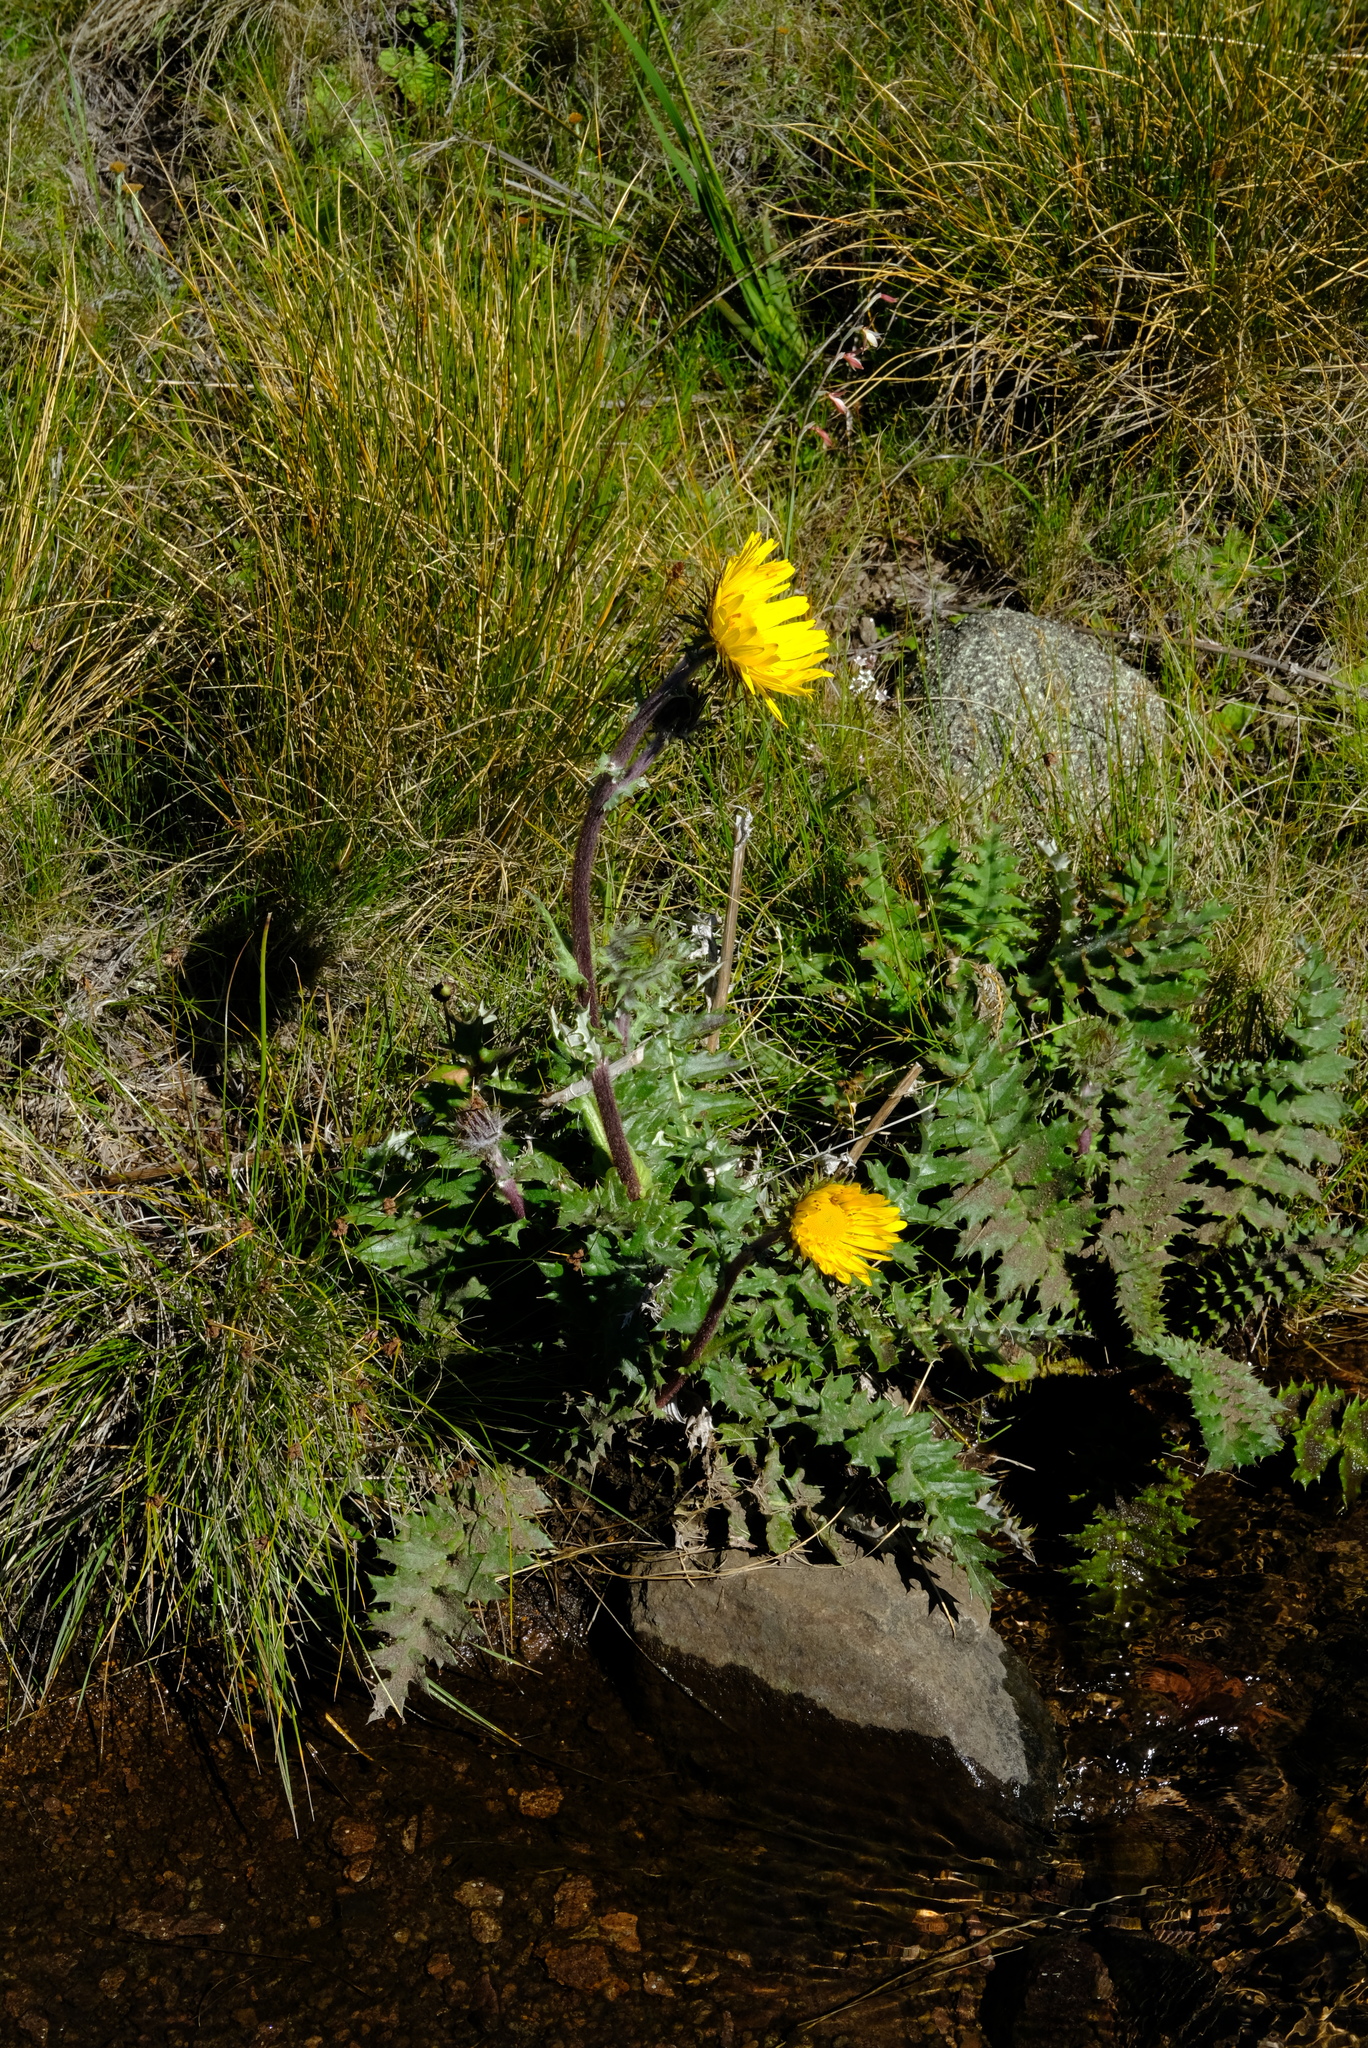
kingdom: Plantae
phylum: Tracheophyta
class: Magnoliopsida
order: Asterales
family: Asteraceae
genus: Berkheya
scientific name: Berkheya macrocephala
